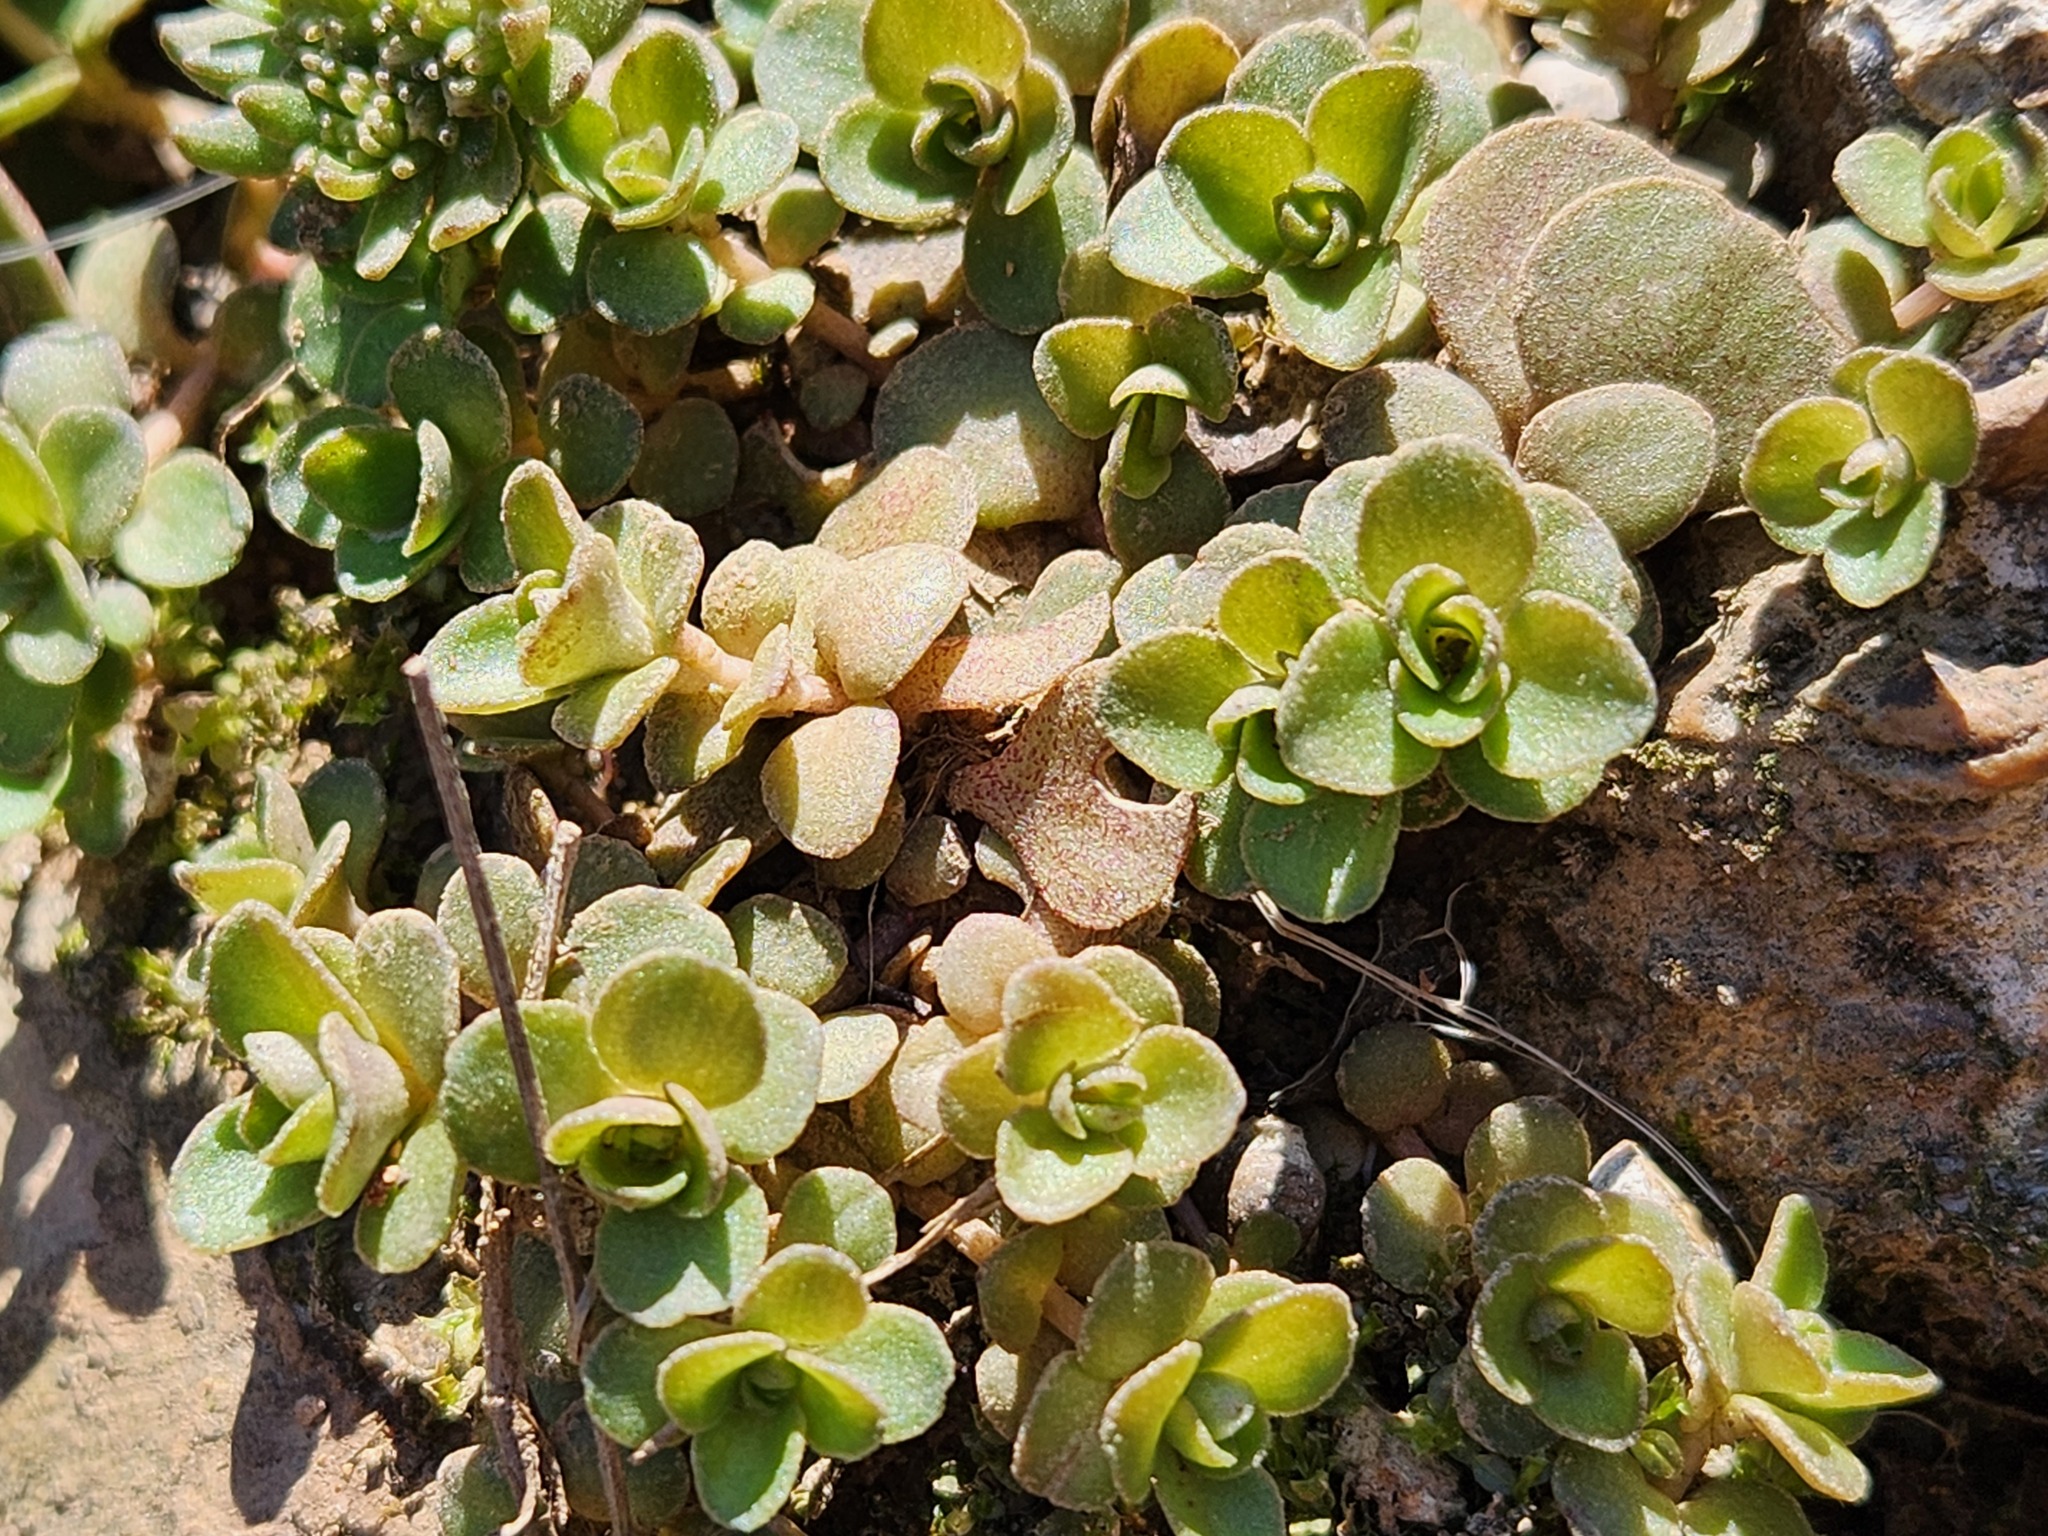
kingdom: Plantae
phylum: Tracheophyta
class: Magnoliopsida
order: Saxifragales
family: Crassulaceae
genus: Sedum
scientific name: Sedum ternatum
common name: Wild stonecrop
